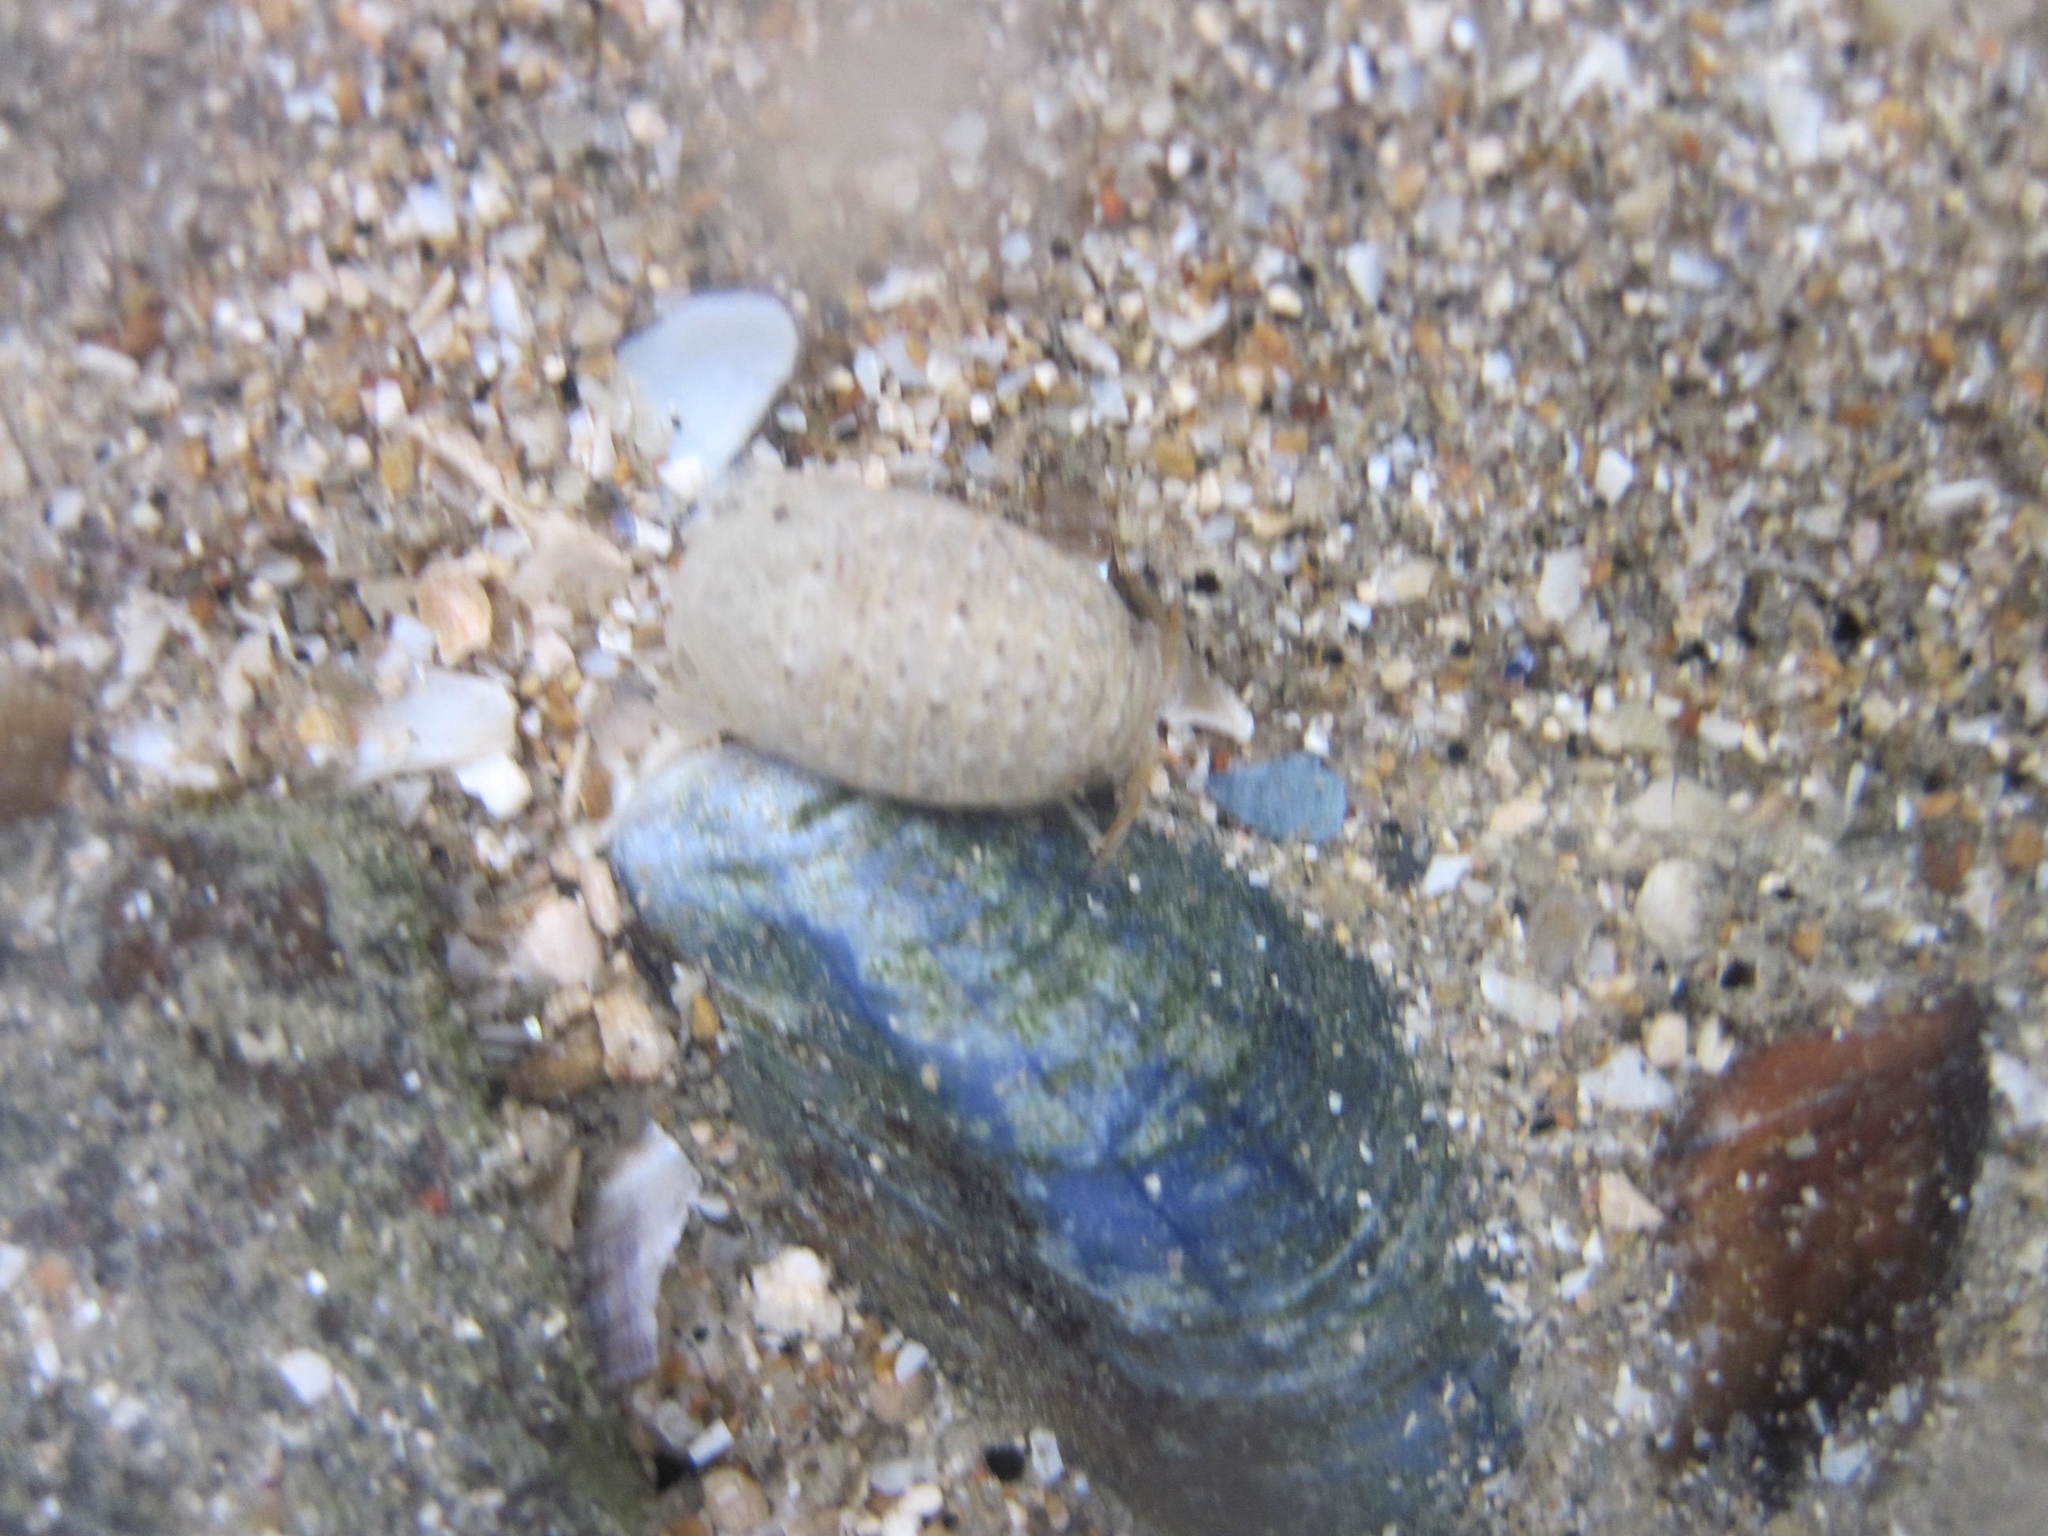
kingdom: Animalia
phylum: Arthropoda
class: Malacostraca
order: Isopoda
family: Sphaeromatidae
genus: Sphaeroma
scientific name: Sphaeroma serratum
